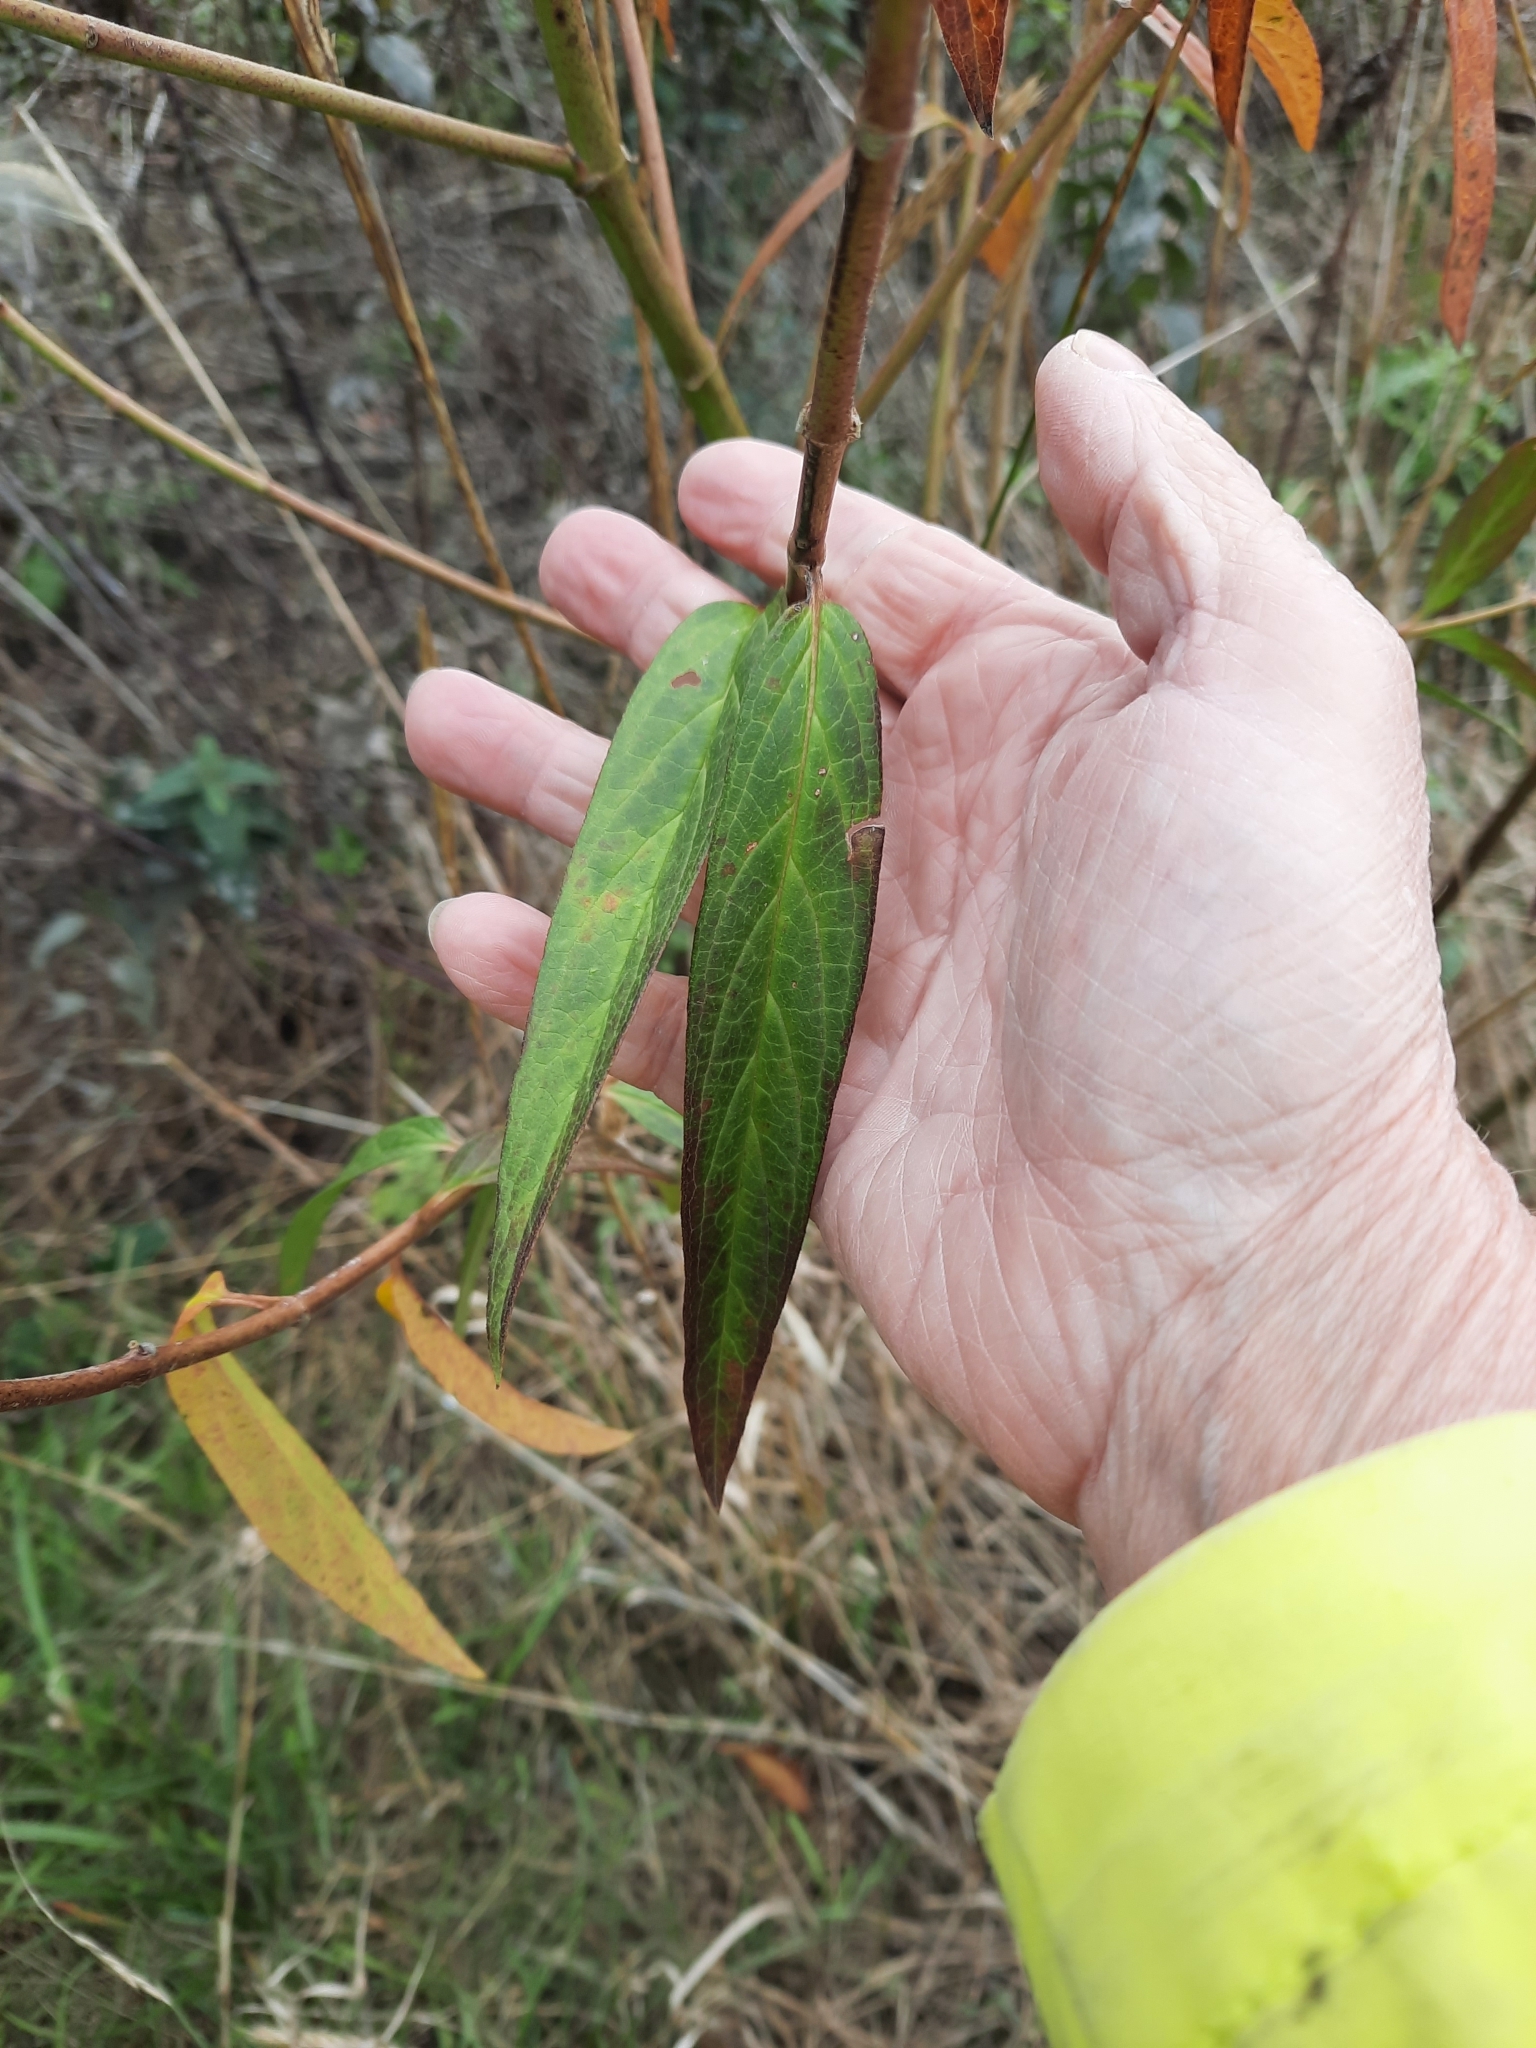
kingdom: Plantae
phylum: Tracheophyta
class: Magnoliopsida
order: Gentianales
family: Apocynaceae
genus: Asclepias
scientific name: Asclepias incarnata
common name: Swamp milkweed
